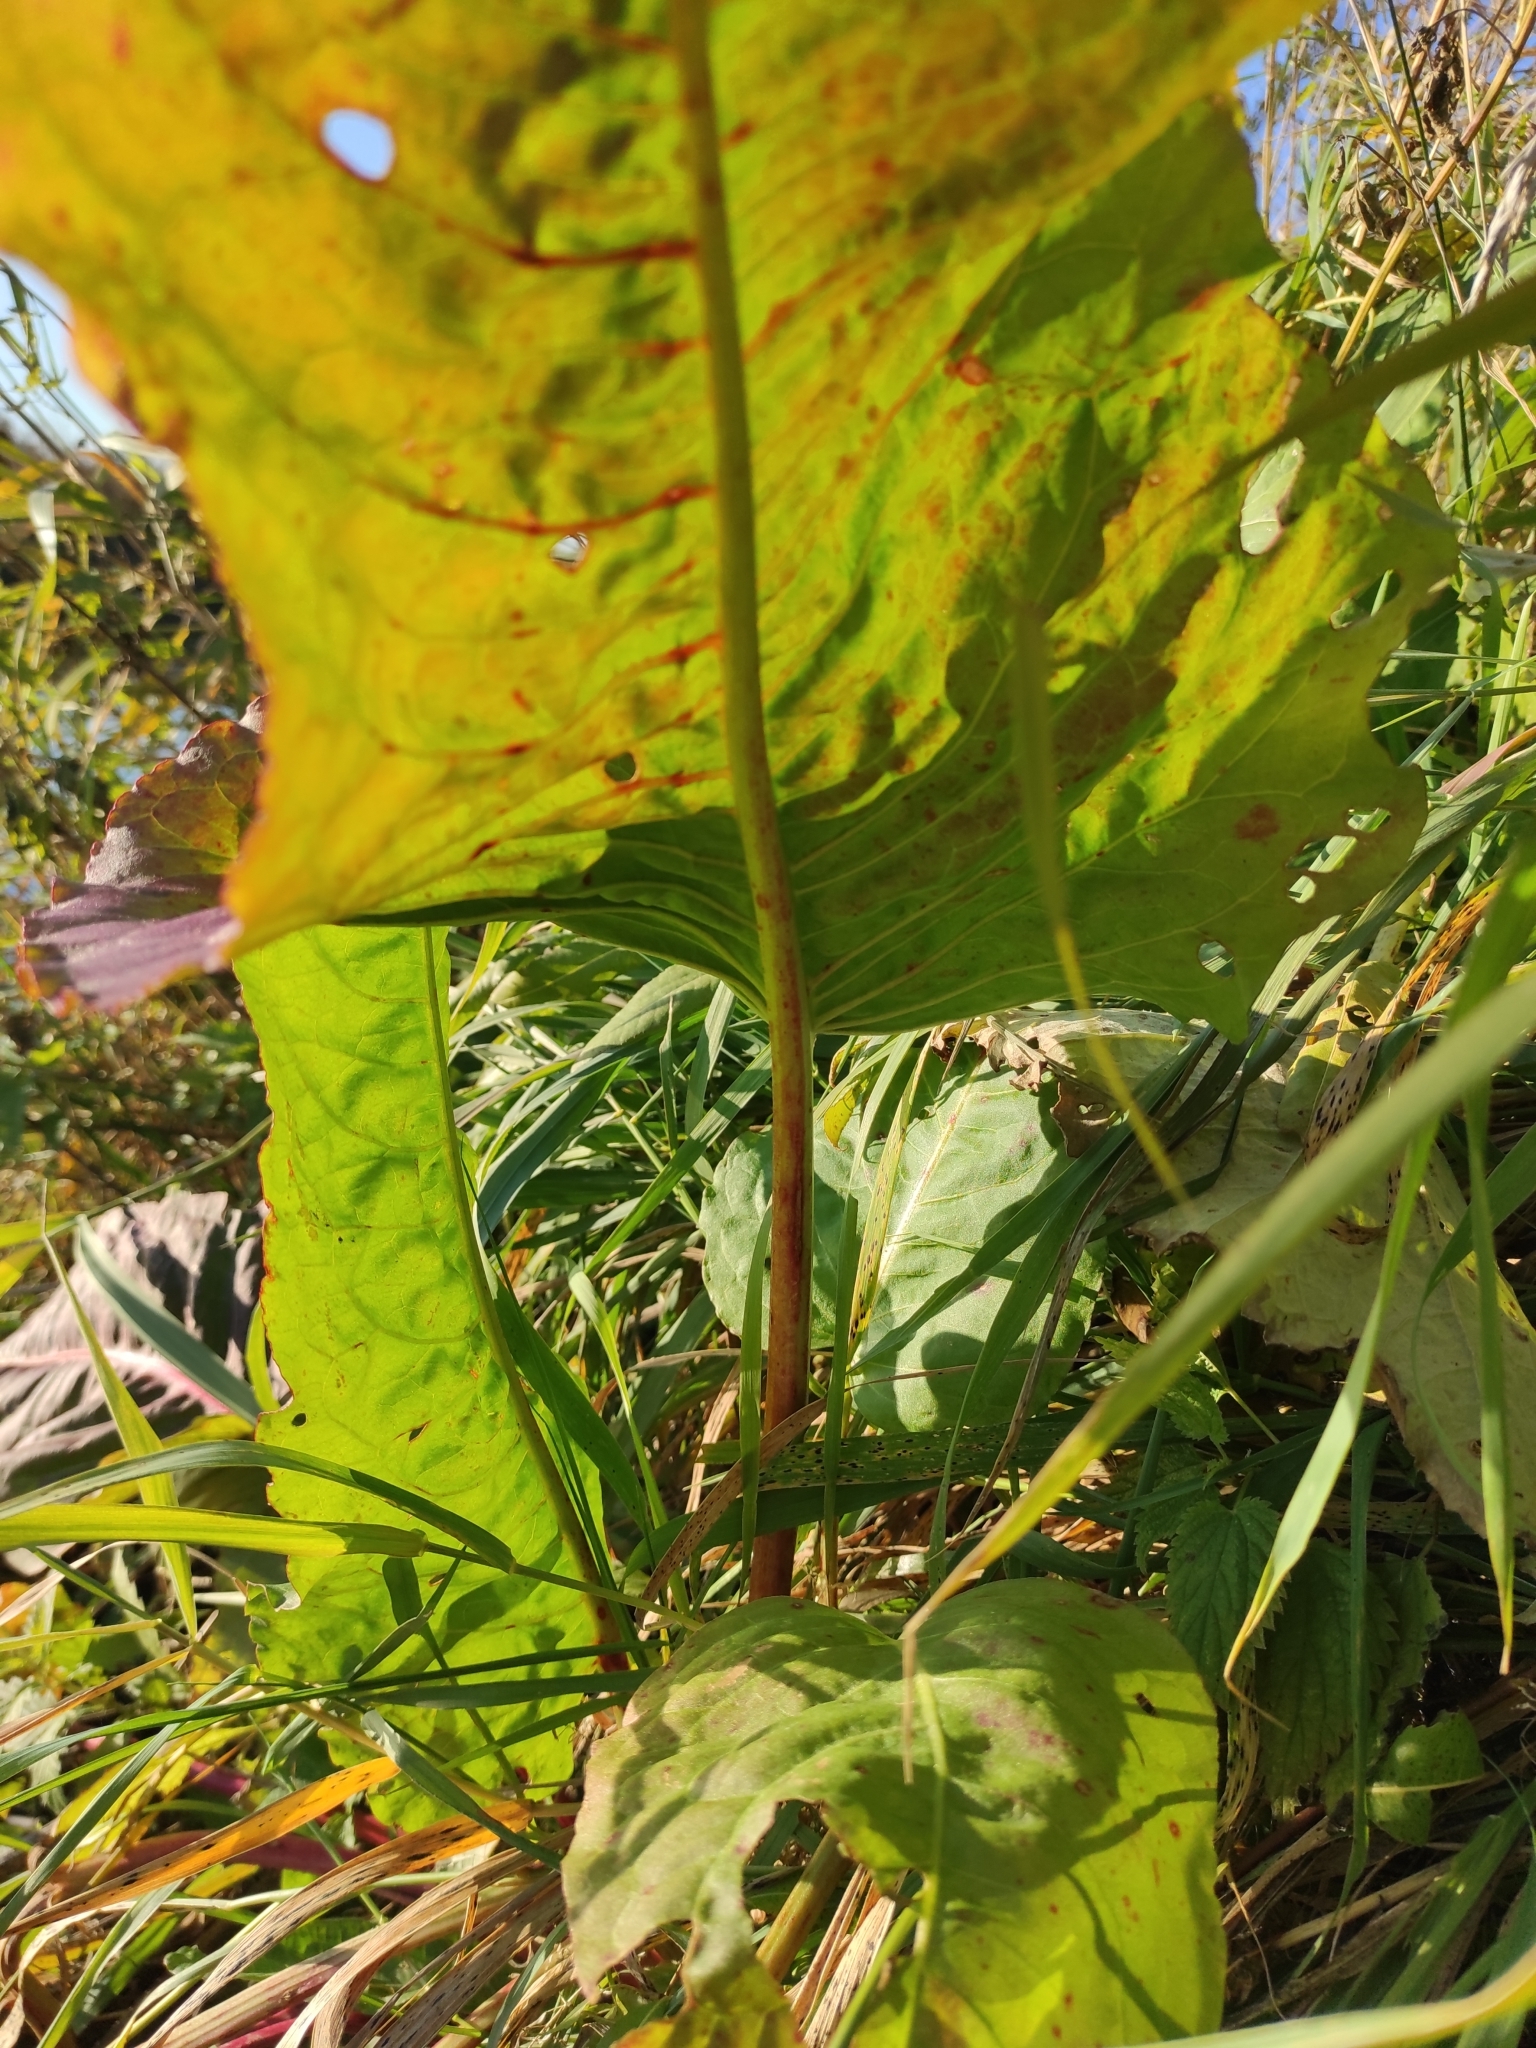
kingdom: Plantae
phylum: Tracheophyta
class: Magnoliopsida
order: Caryophyllales
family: Polygonaceae
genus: Rumex
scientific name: Rumex aquaticus
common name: Scottish dock
